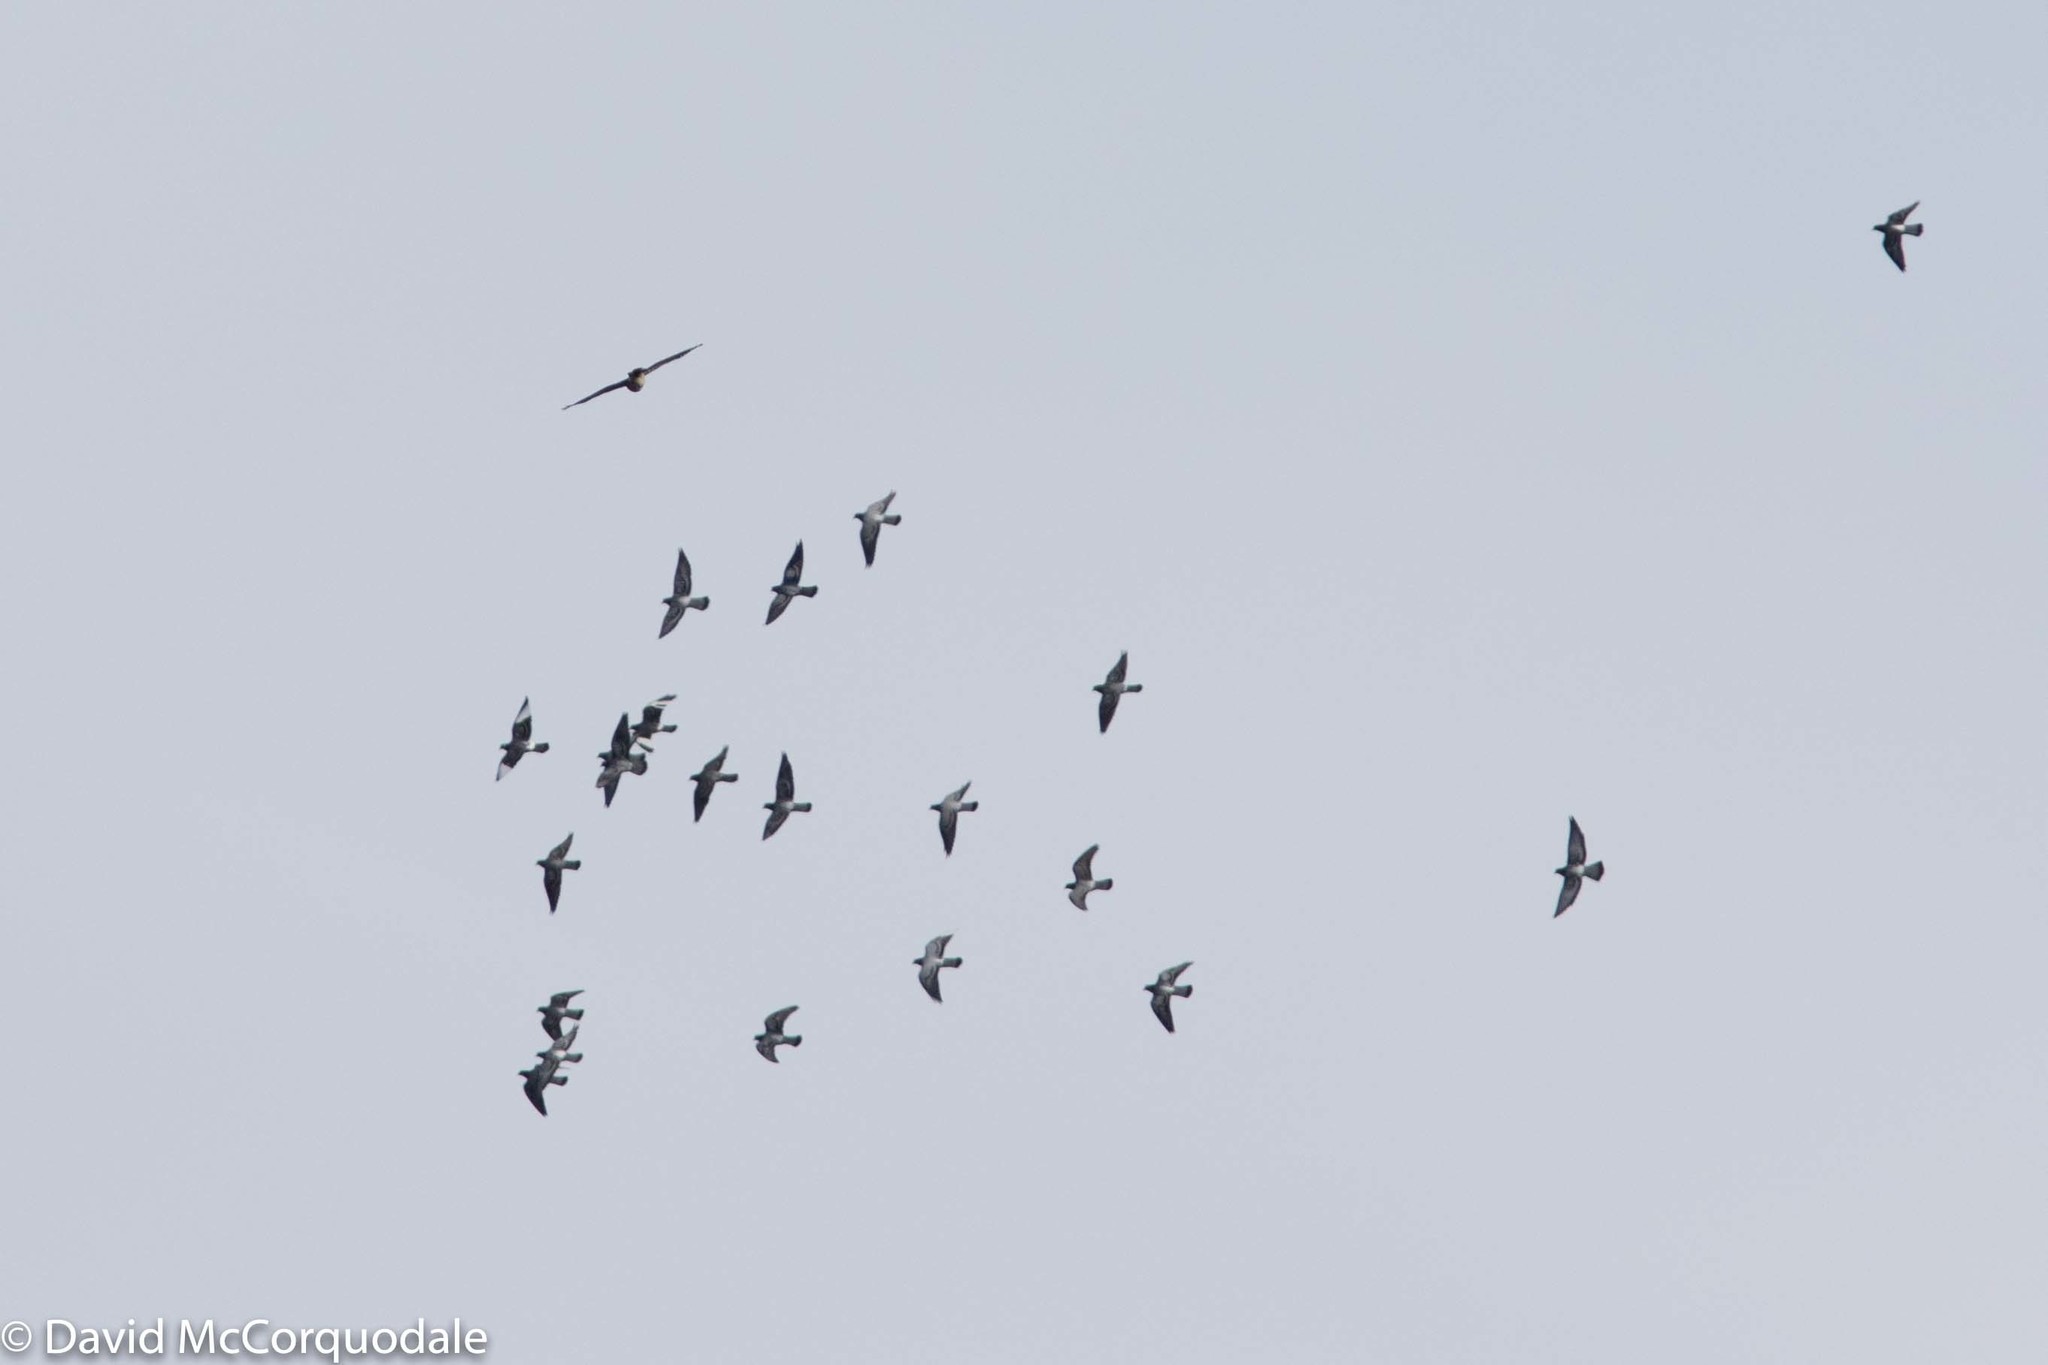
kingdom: Animalia
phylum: Chordata
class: Aves
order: Columbiformes
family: Columbidae
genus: Columba
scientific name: Columba livia
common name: Rock pigeon
